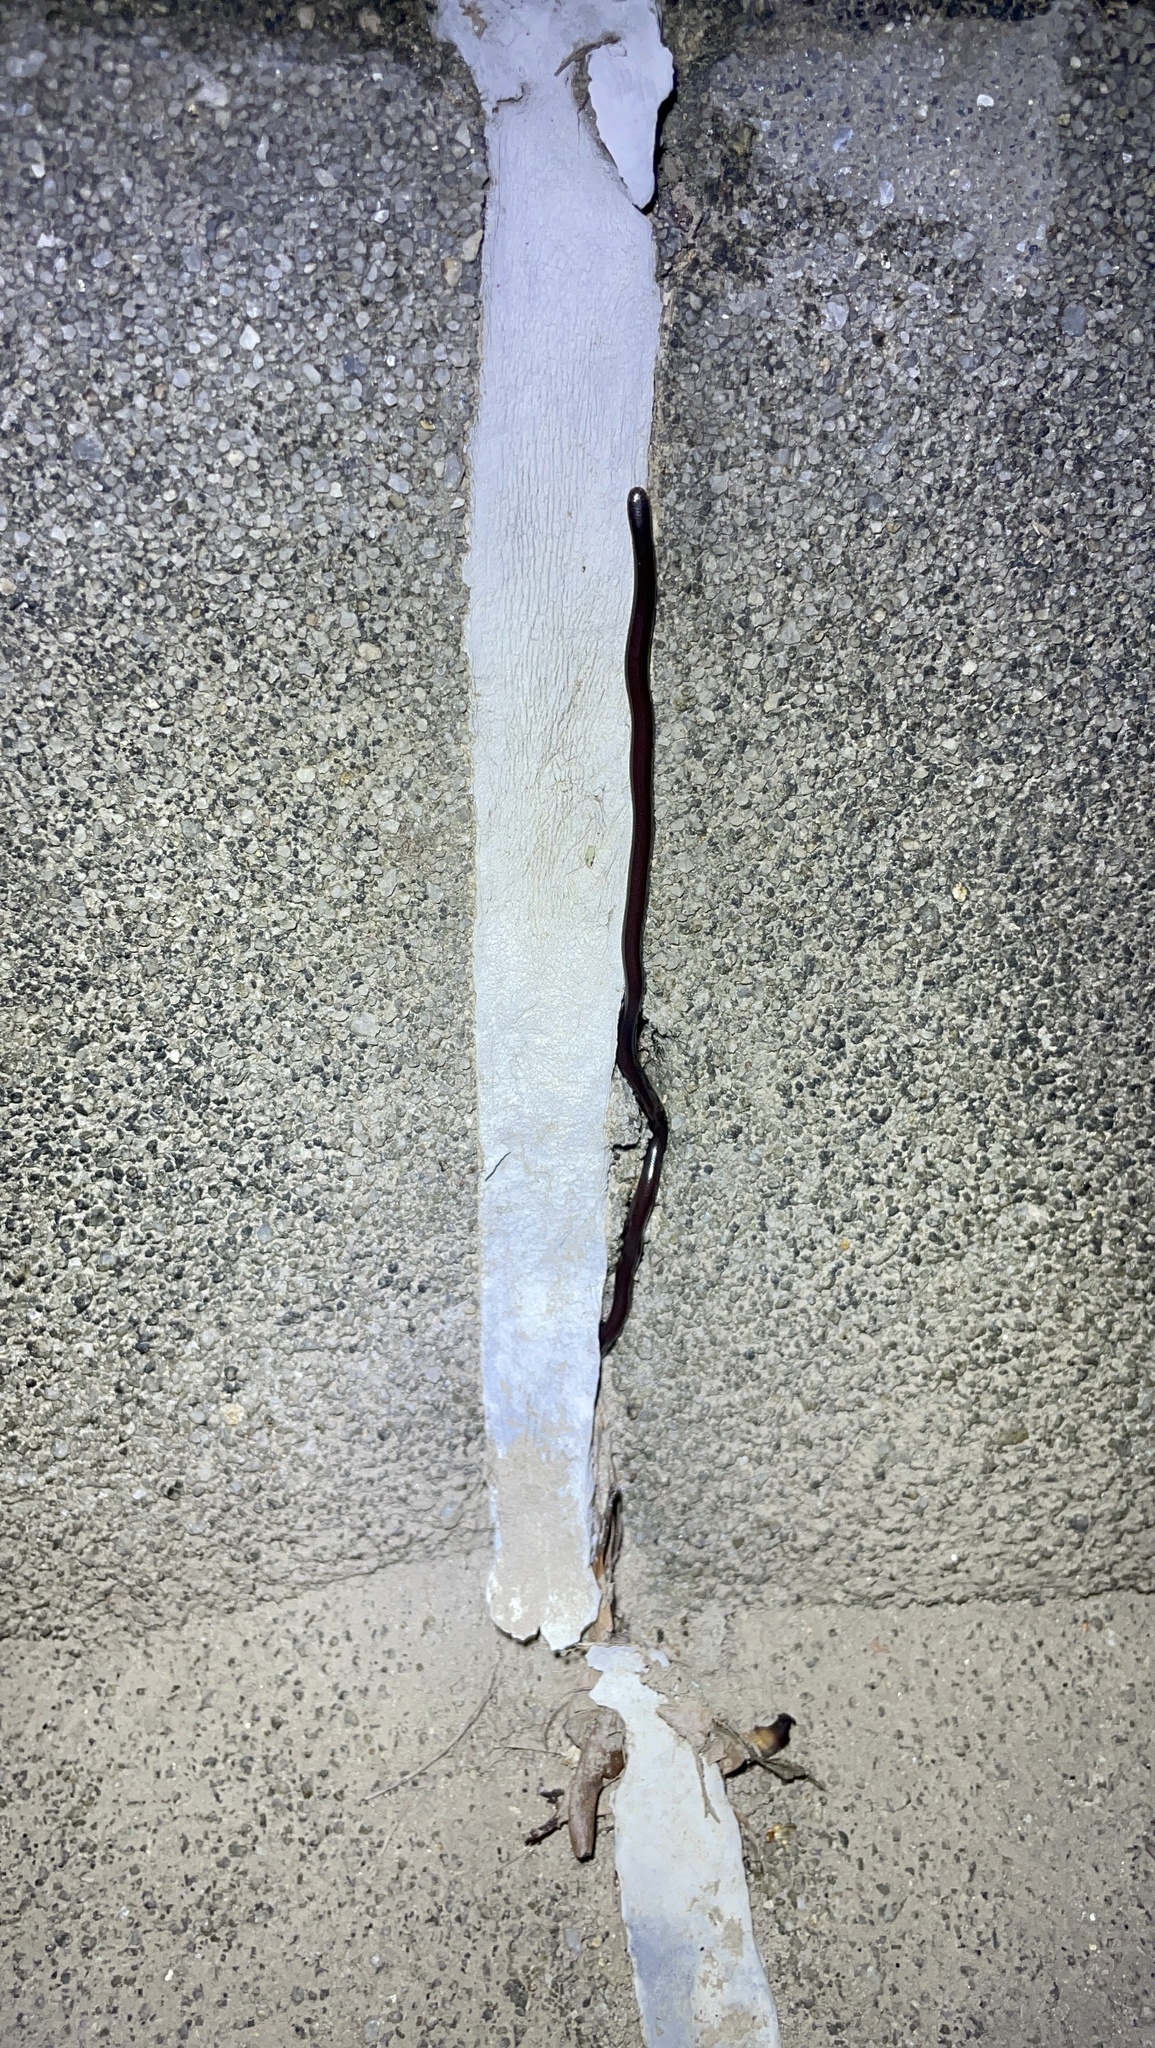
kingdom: Animalia
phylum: Chordata
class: Squamata
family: Typhlopidae
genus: Indotyphlops
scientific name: Indotyphlops braminus
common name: Brahminy blindsnake
